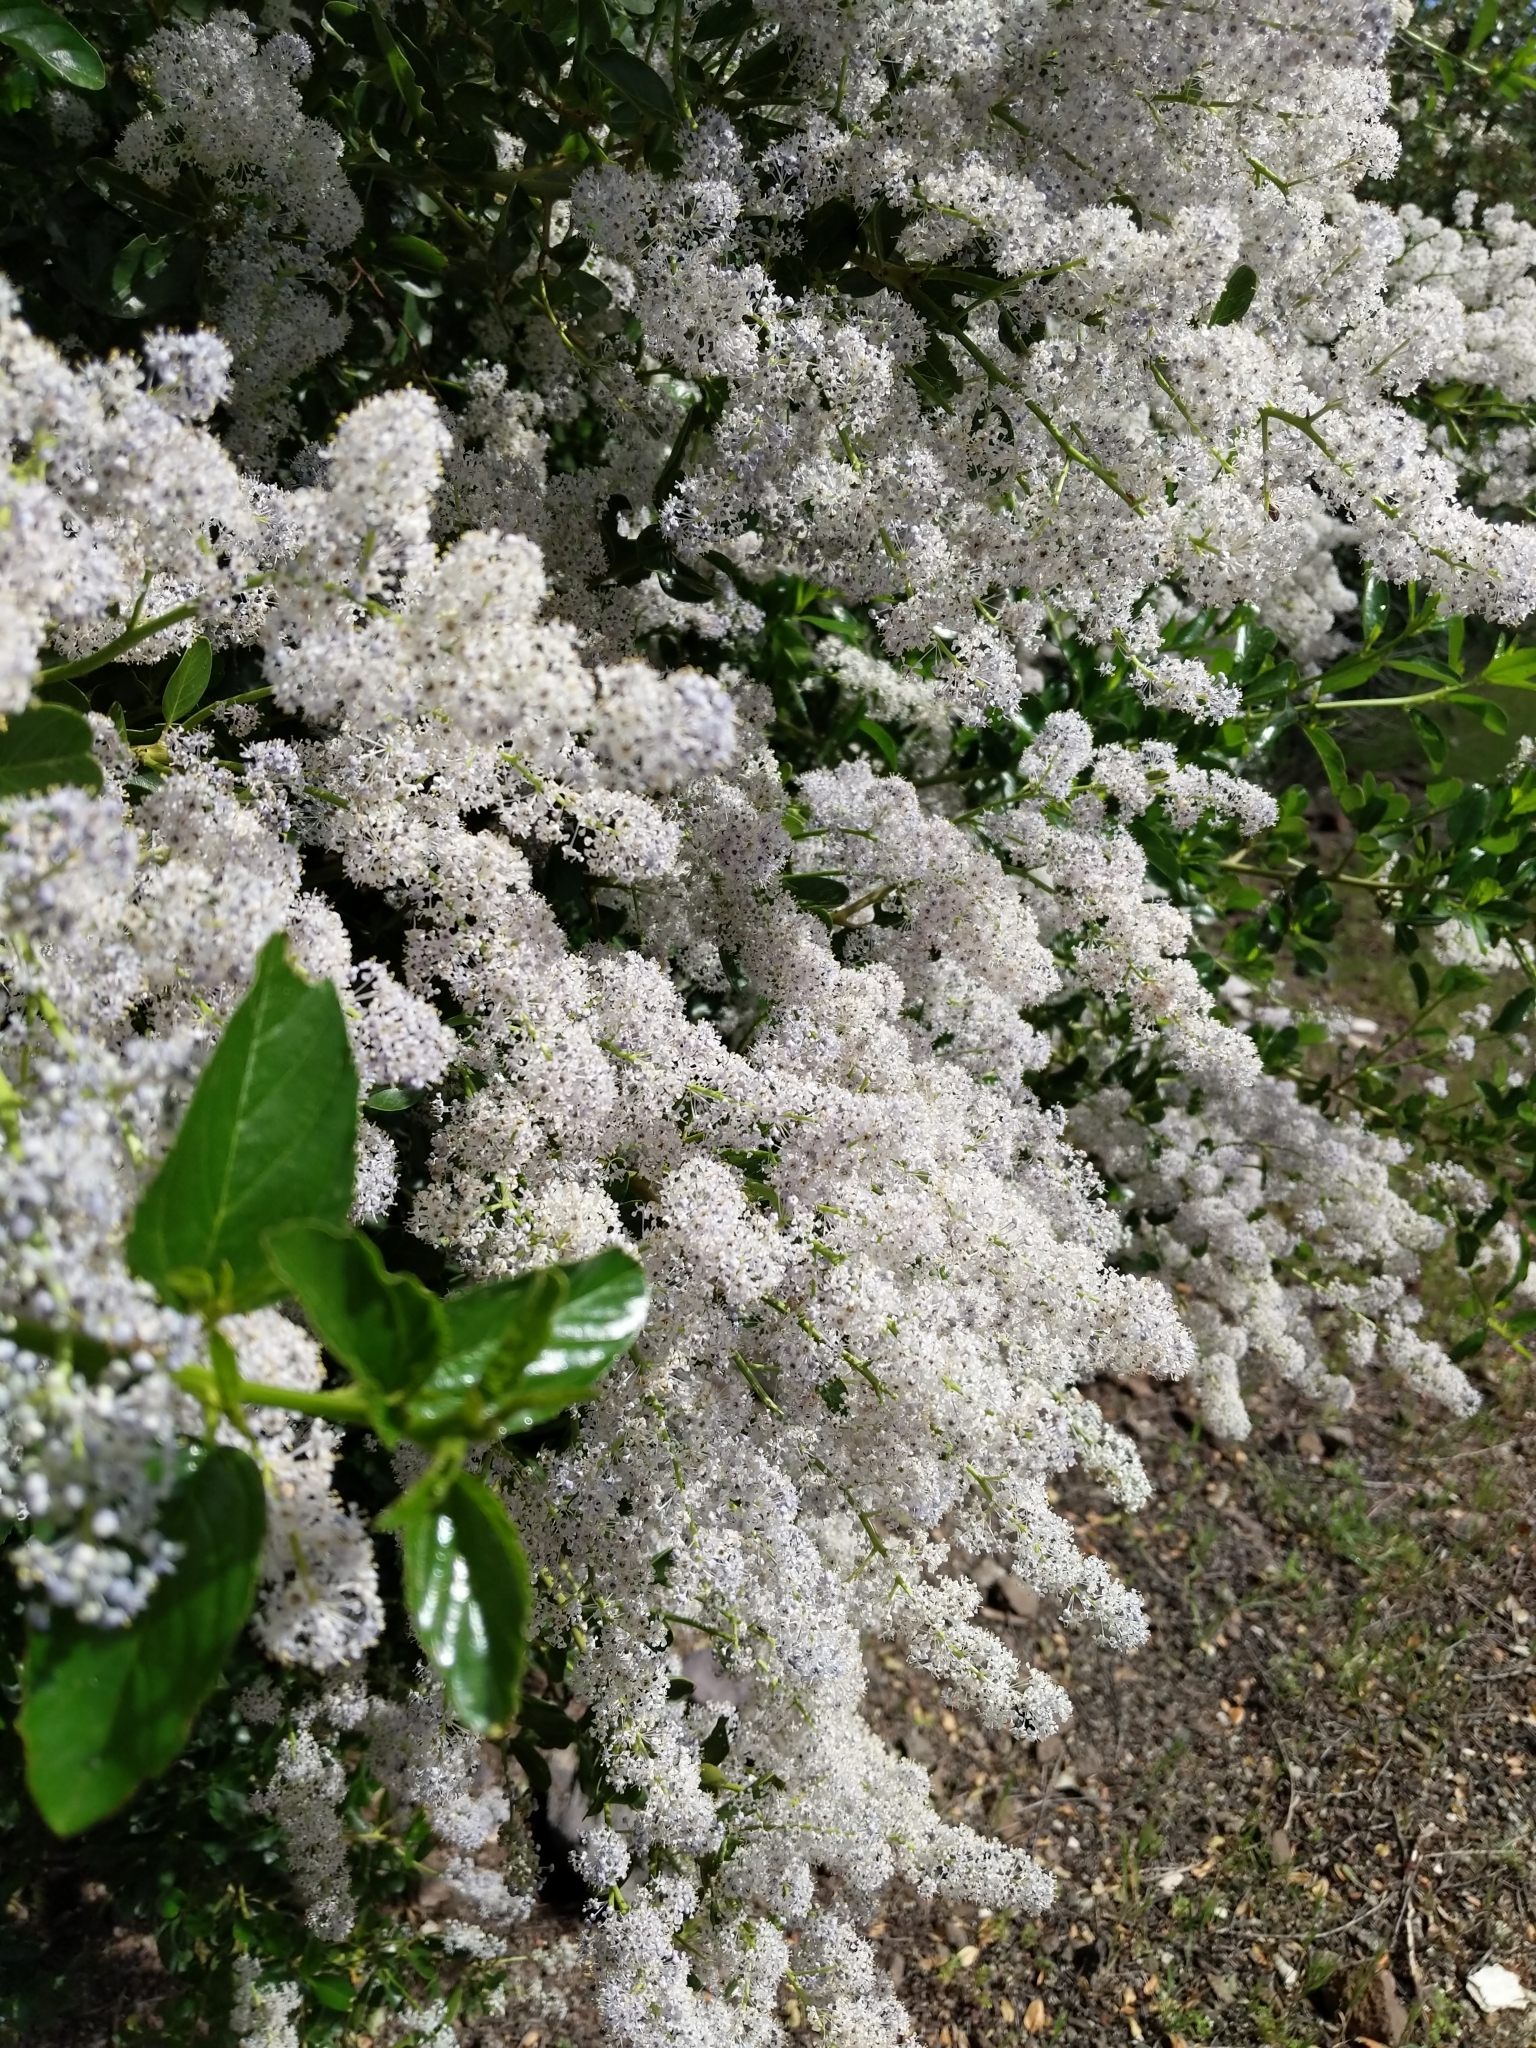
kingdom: Plantae
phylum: Tracheophyta
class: Magnoliopsida
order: Rosales
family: Rhamnaceae
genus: Ceanothus
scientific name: Ceanothus spinosus
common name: Greenbark whitethorn
